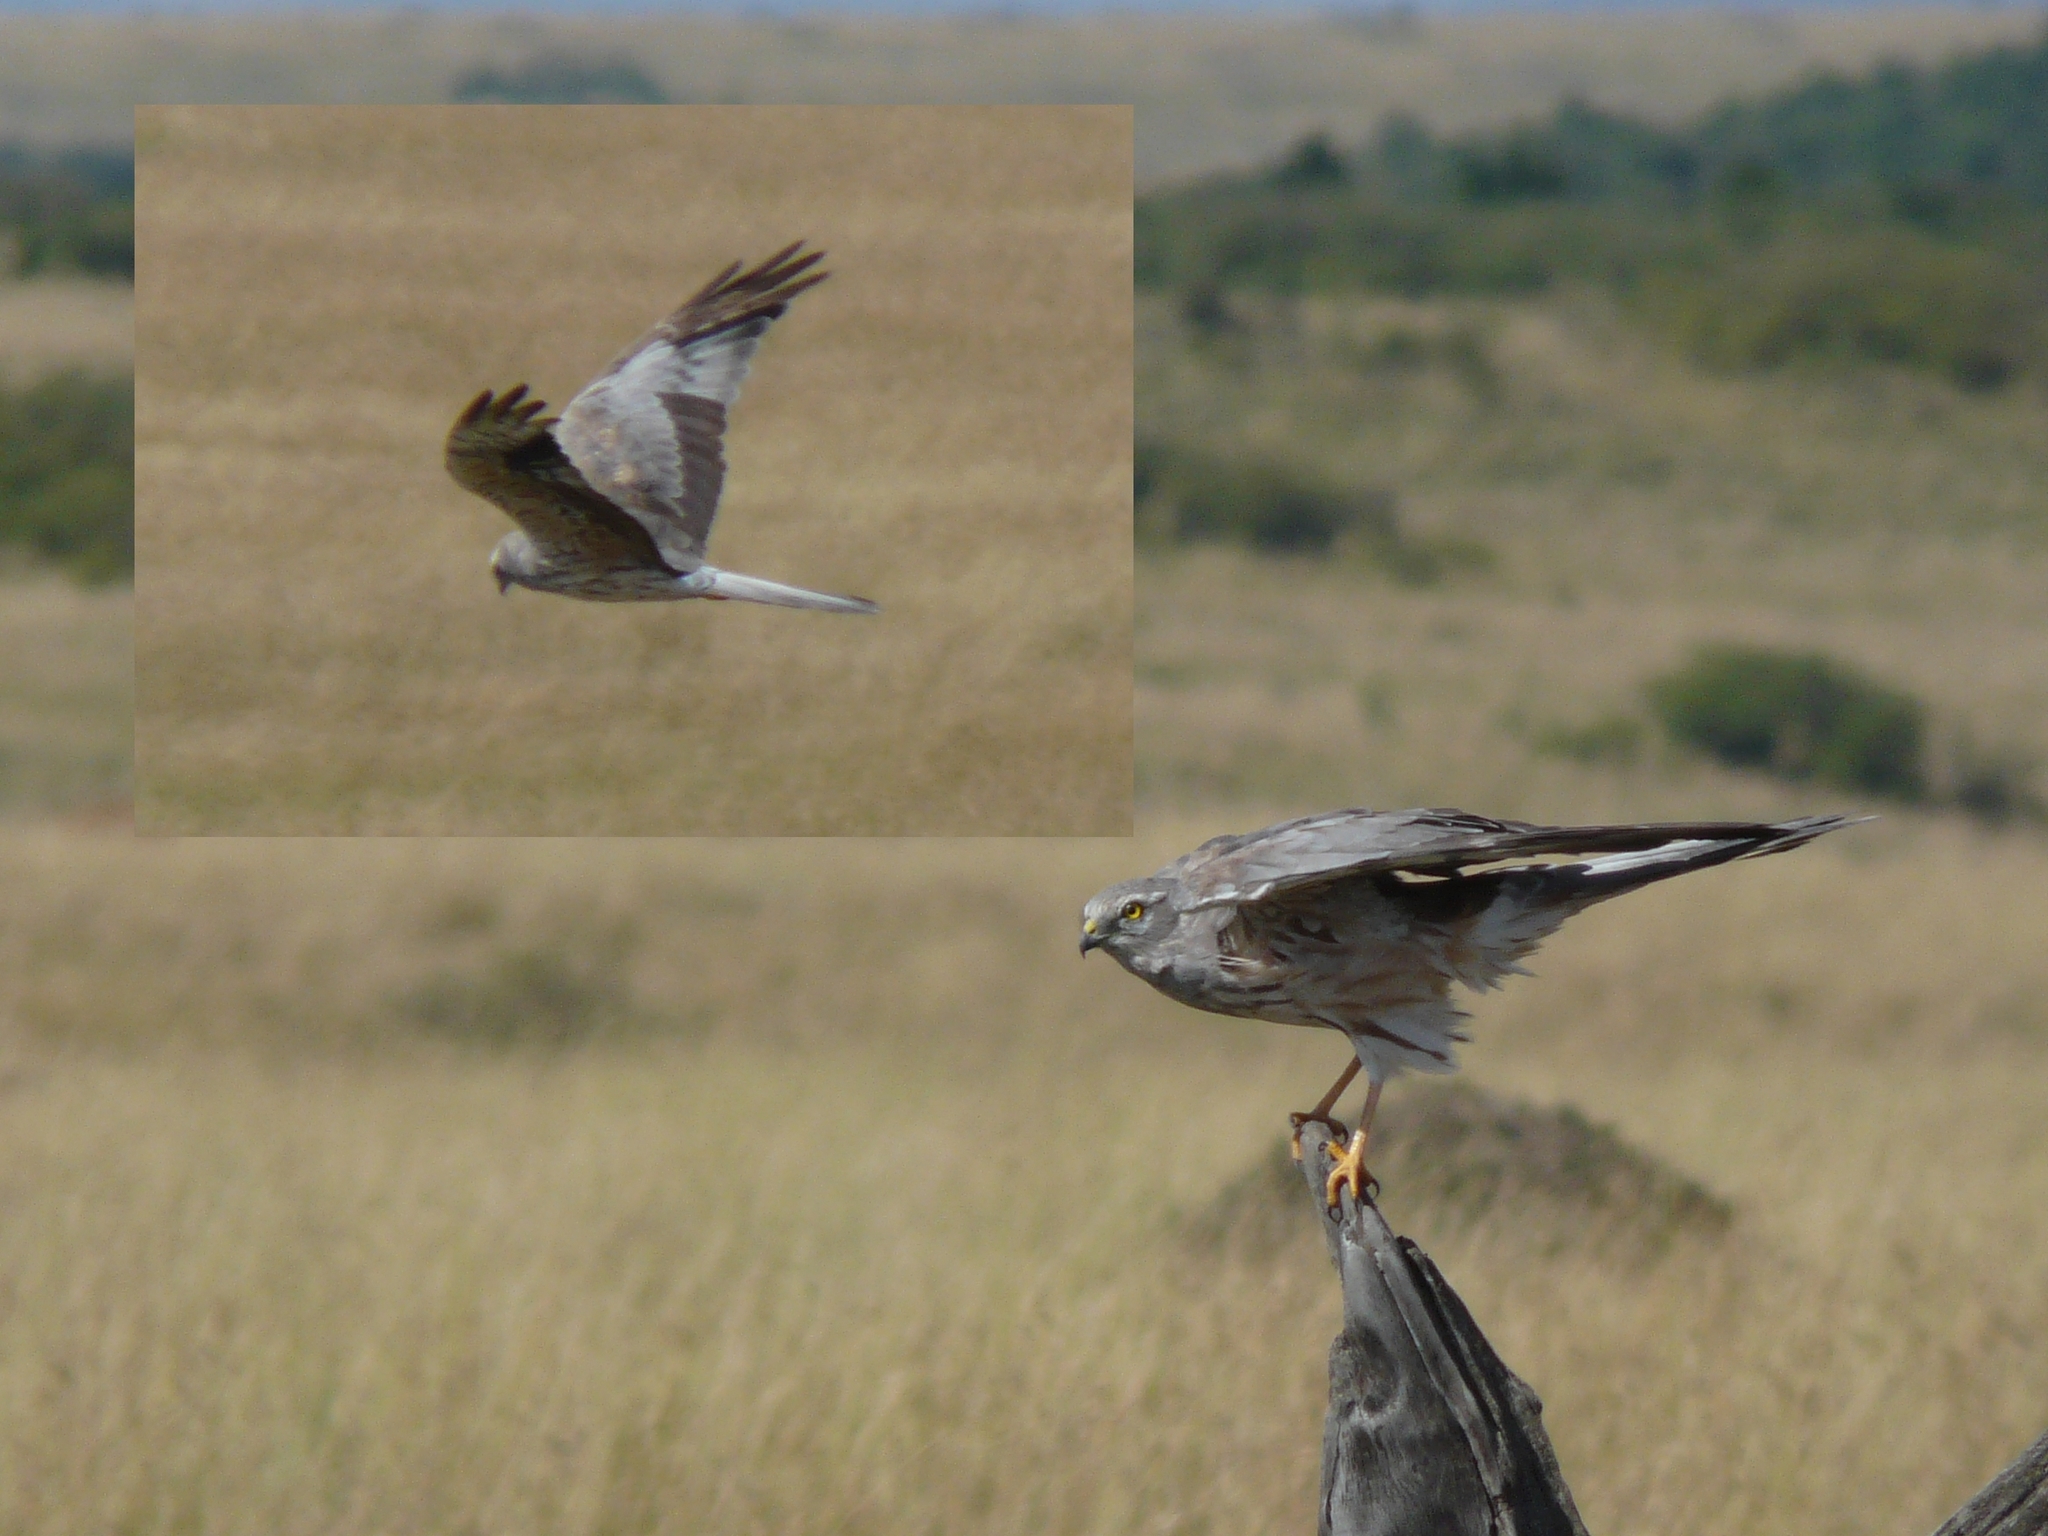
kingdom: Animalia
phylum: Chordata
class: Aves
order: Accipitriformes
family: Accipitridae
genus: Circus
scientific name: Circus pygargus
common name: Montagu's harrier
